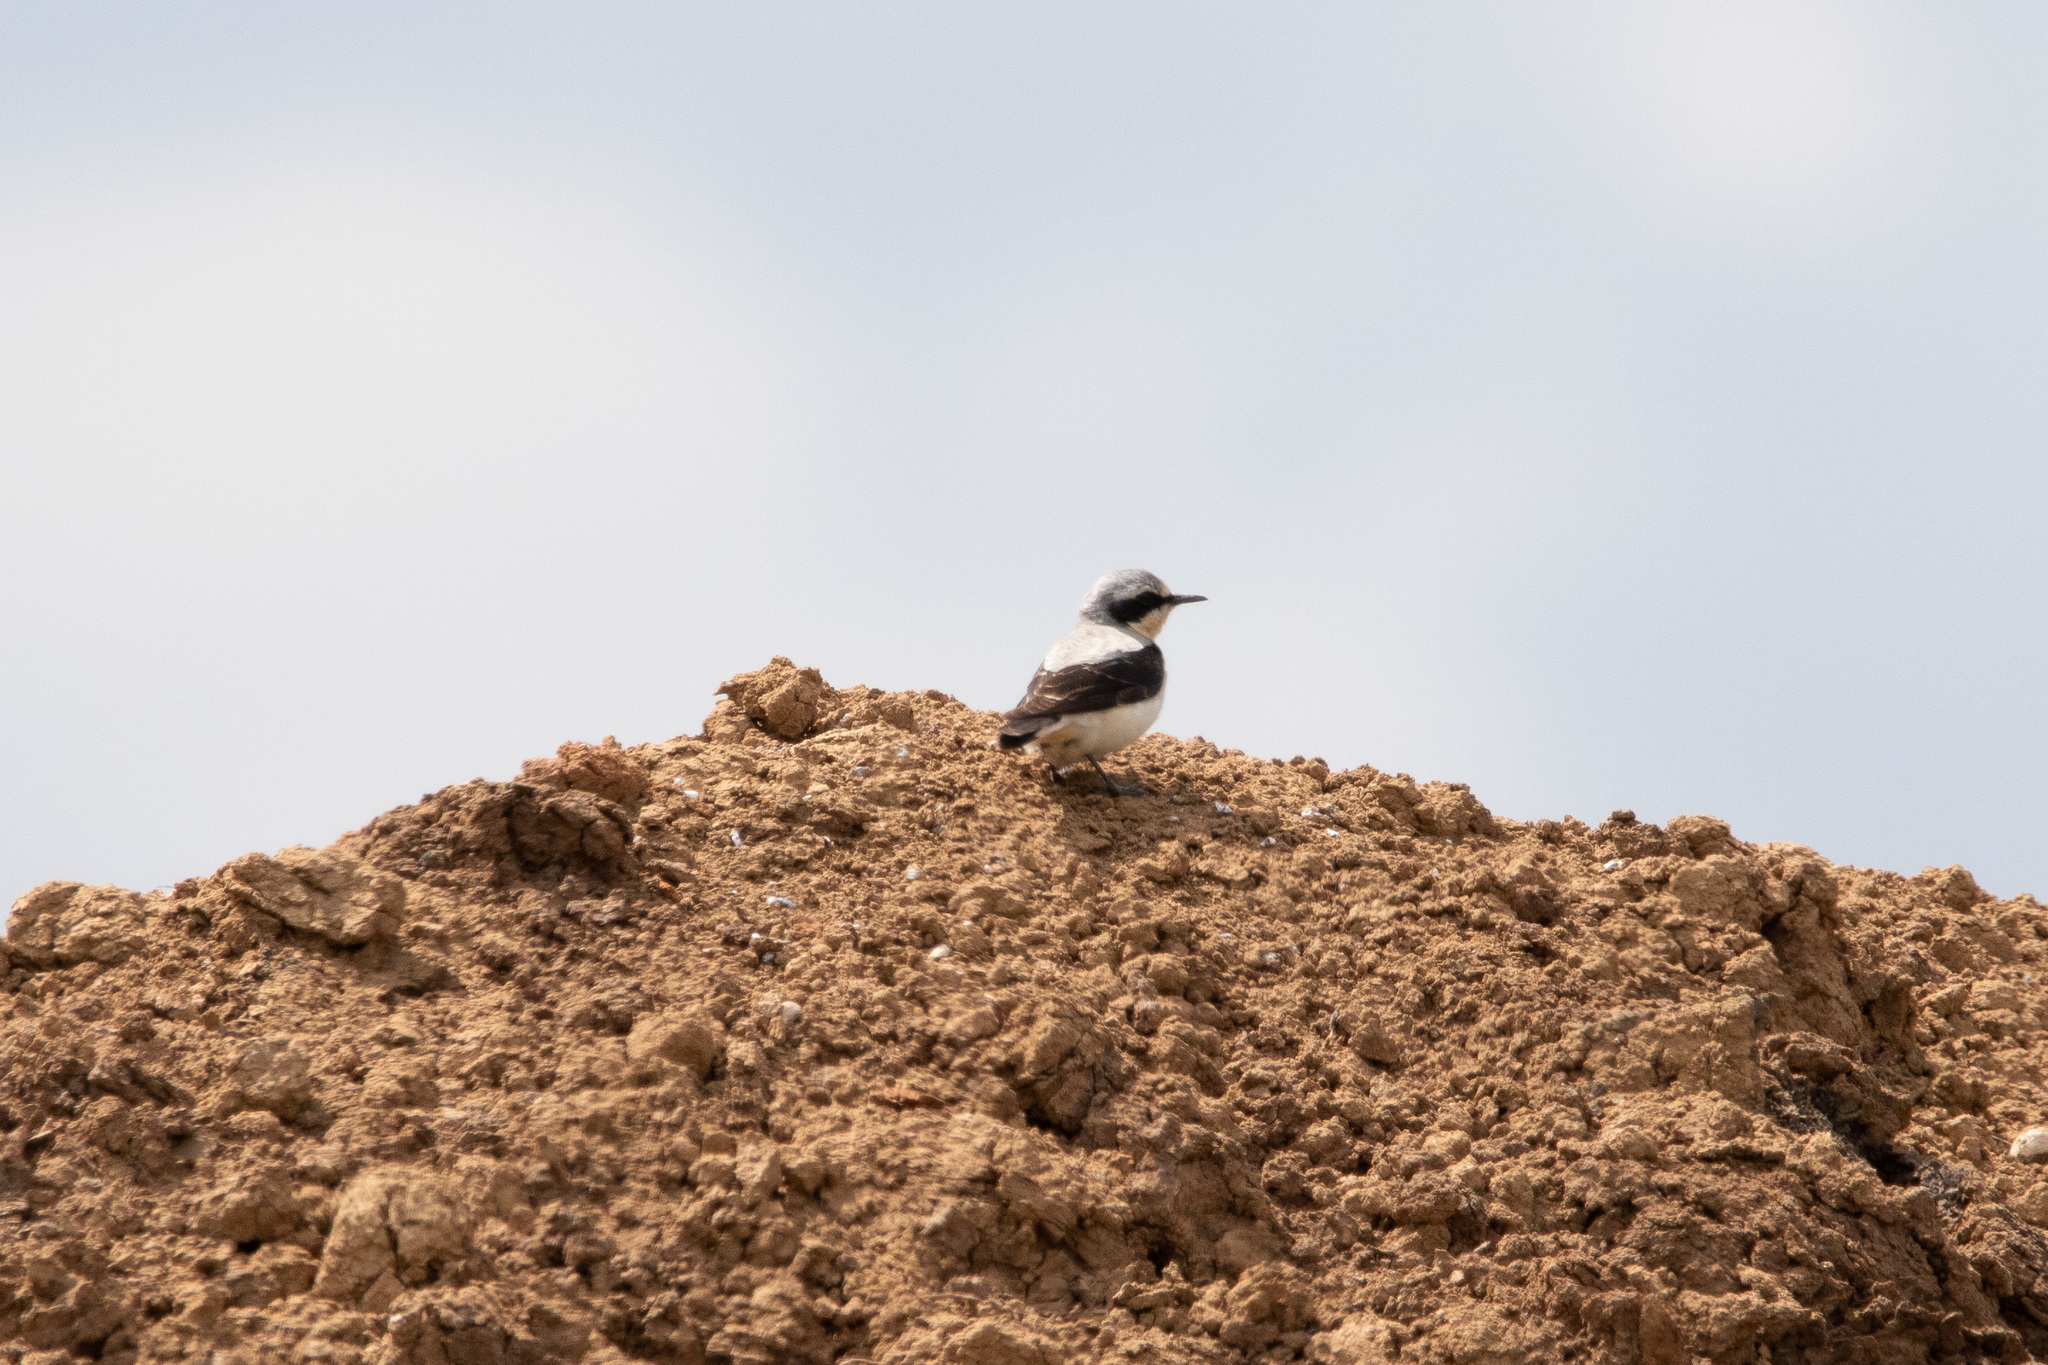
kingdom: Animalia
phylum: Chordata
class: Aves
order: Passeriformes
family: Muscicapidae
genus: Oenanthe
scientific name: Oenanthe oenanthe
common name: Northern wheatear
